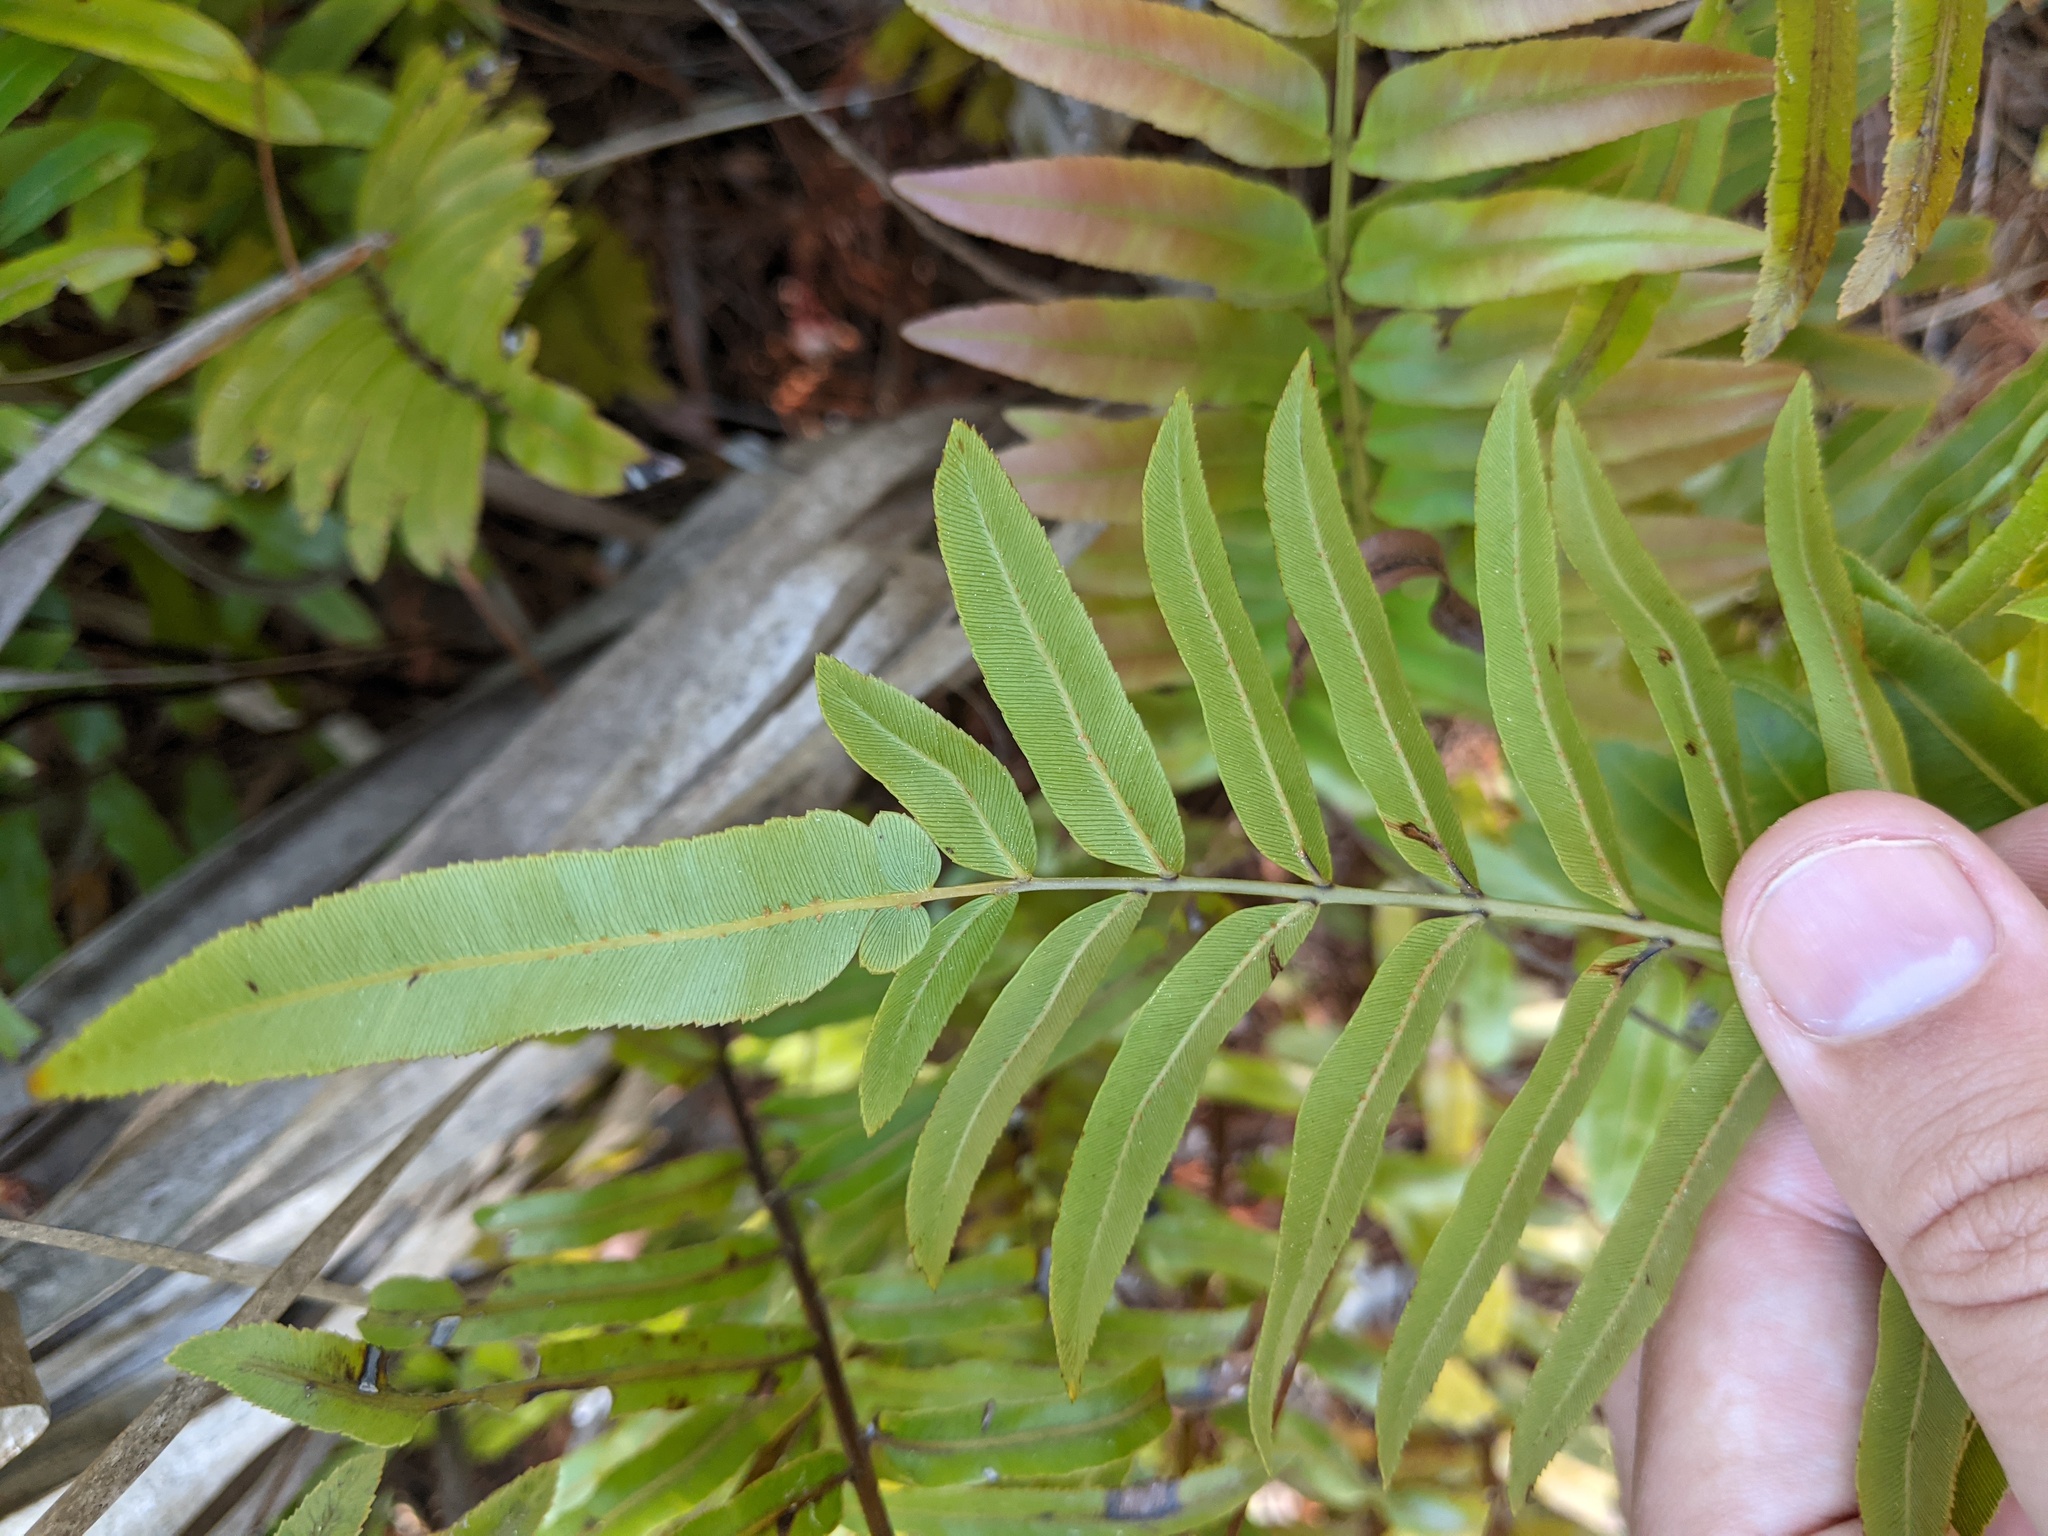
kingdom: Plantae
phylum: Tracheophyta
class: Polypodiopsida
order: Polypodiales
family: Blechnaceae
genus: Telmatoblechnum
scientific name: Telmatoblechnum serrulatum
